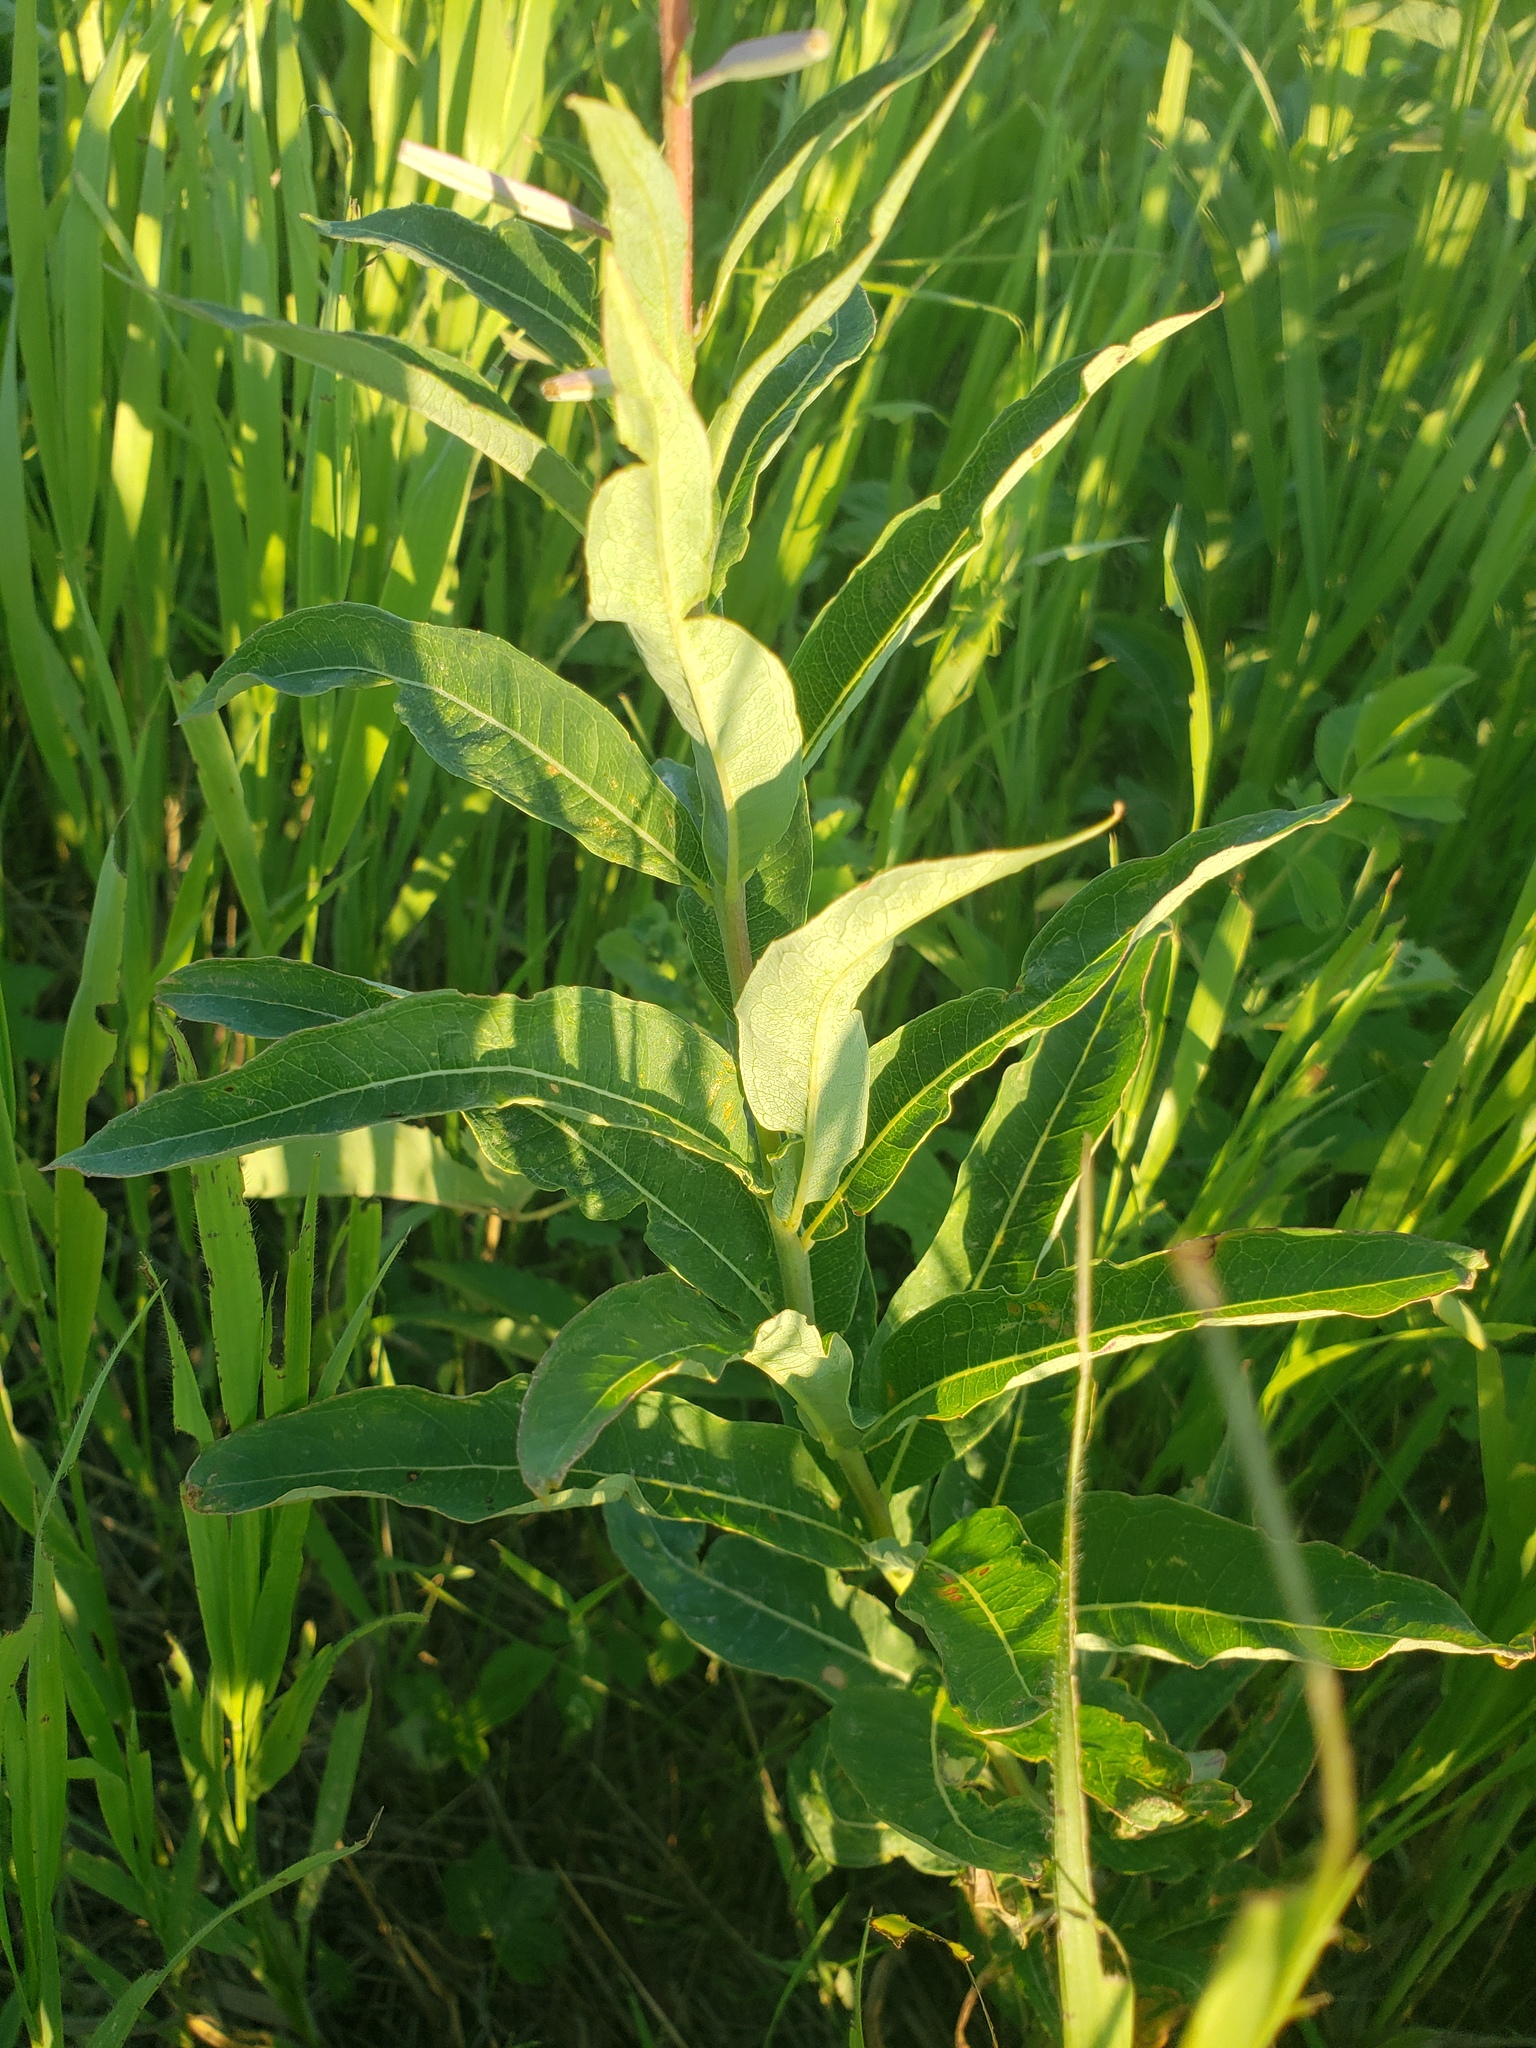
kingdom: Plantae
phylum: Tracheophyta
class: Magnoliopsida
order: Myrtales
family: Onagraceae
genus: Chamaenerion
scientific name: Chamaenerion angustifolium
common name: Fireweed
